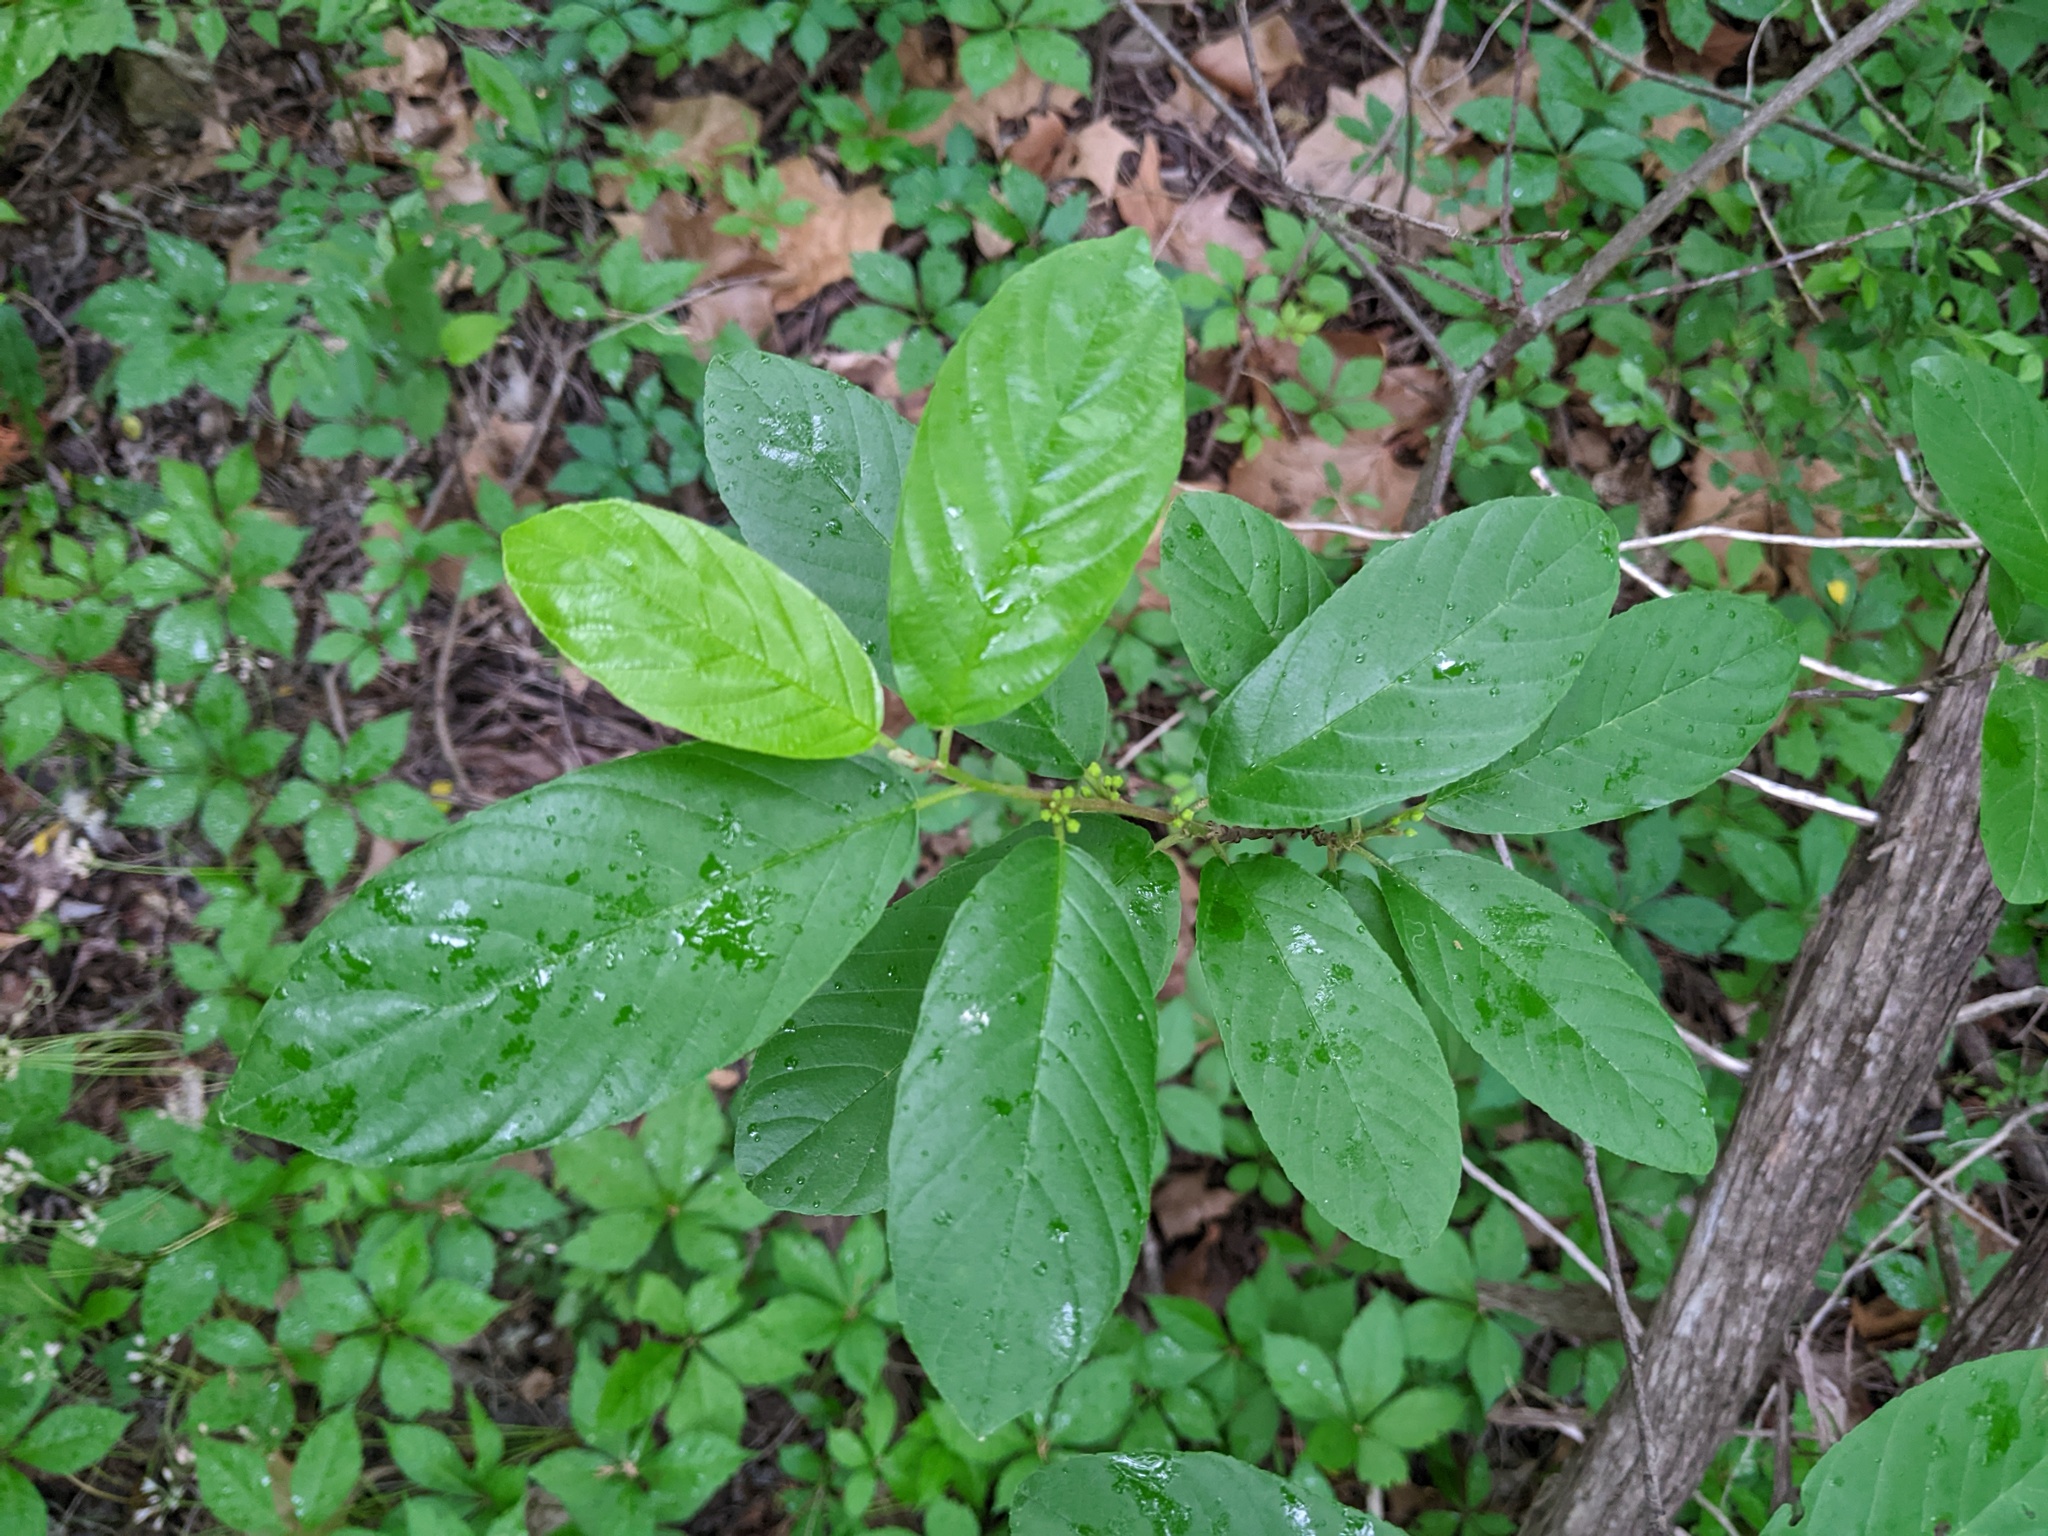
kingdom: Plantae
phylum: Tracheophyta
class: Magnoliopsida
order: Rosales
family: Rhamnaceae
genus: Frangula
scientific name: Frangula caroliniana
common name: Carolina buckthorn
